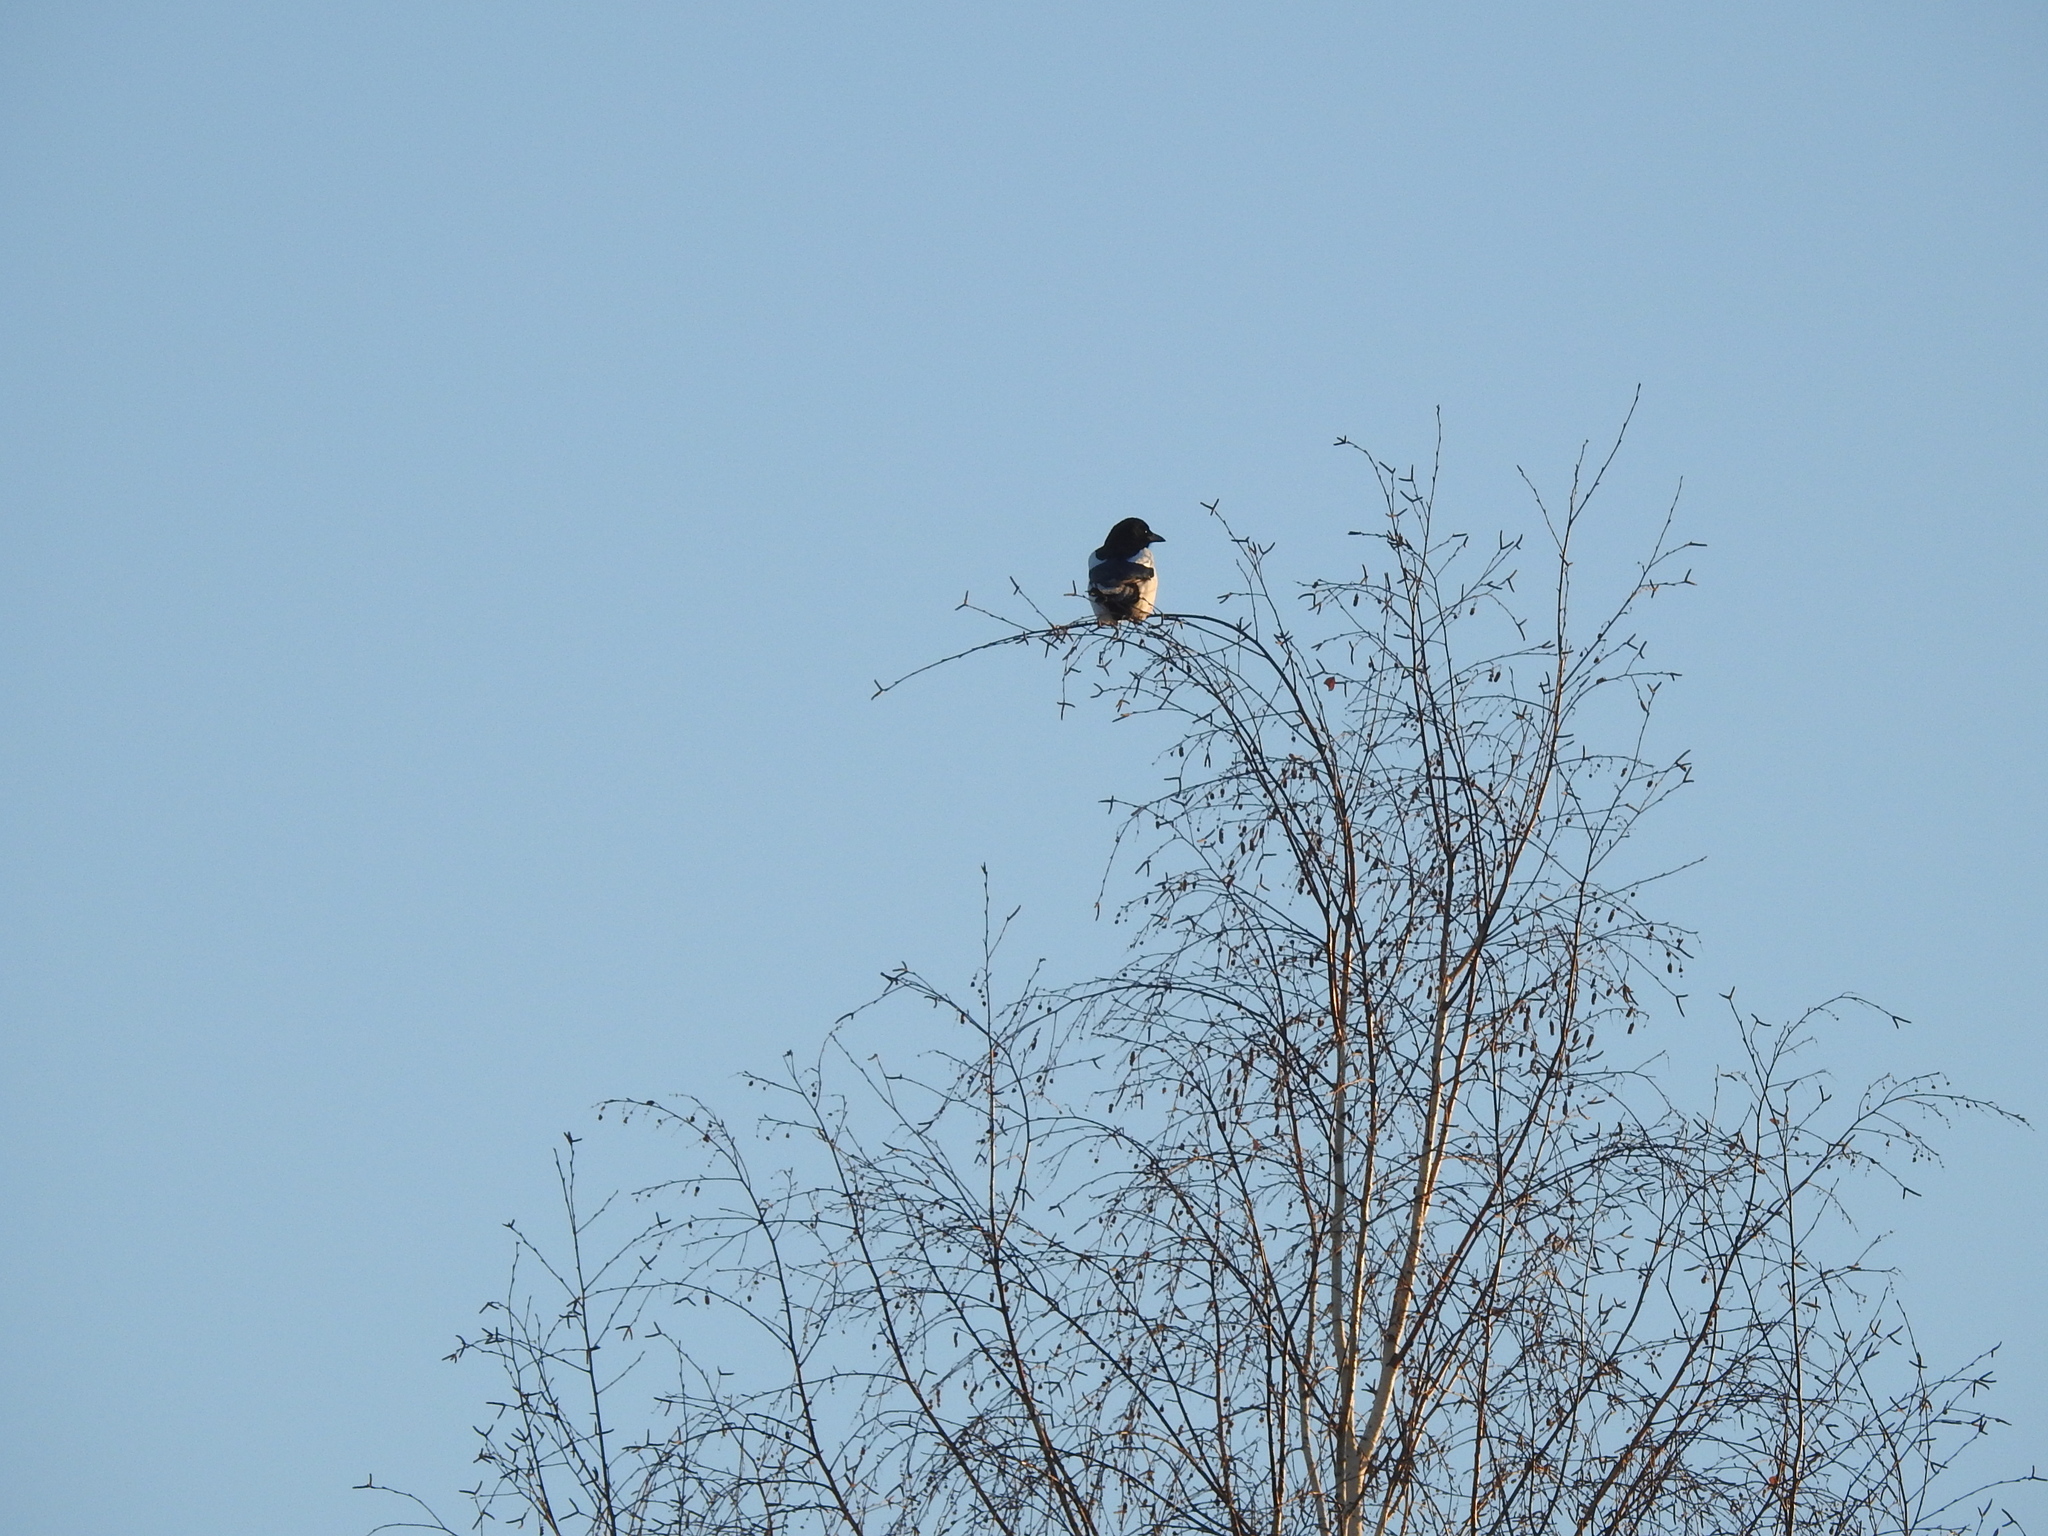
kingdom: Animalia
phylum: Chordata
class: Aves
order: Passeriformes
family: Corvidae
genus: Pica
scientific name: Pica pica
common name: Eurasian magpie
